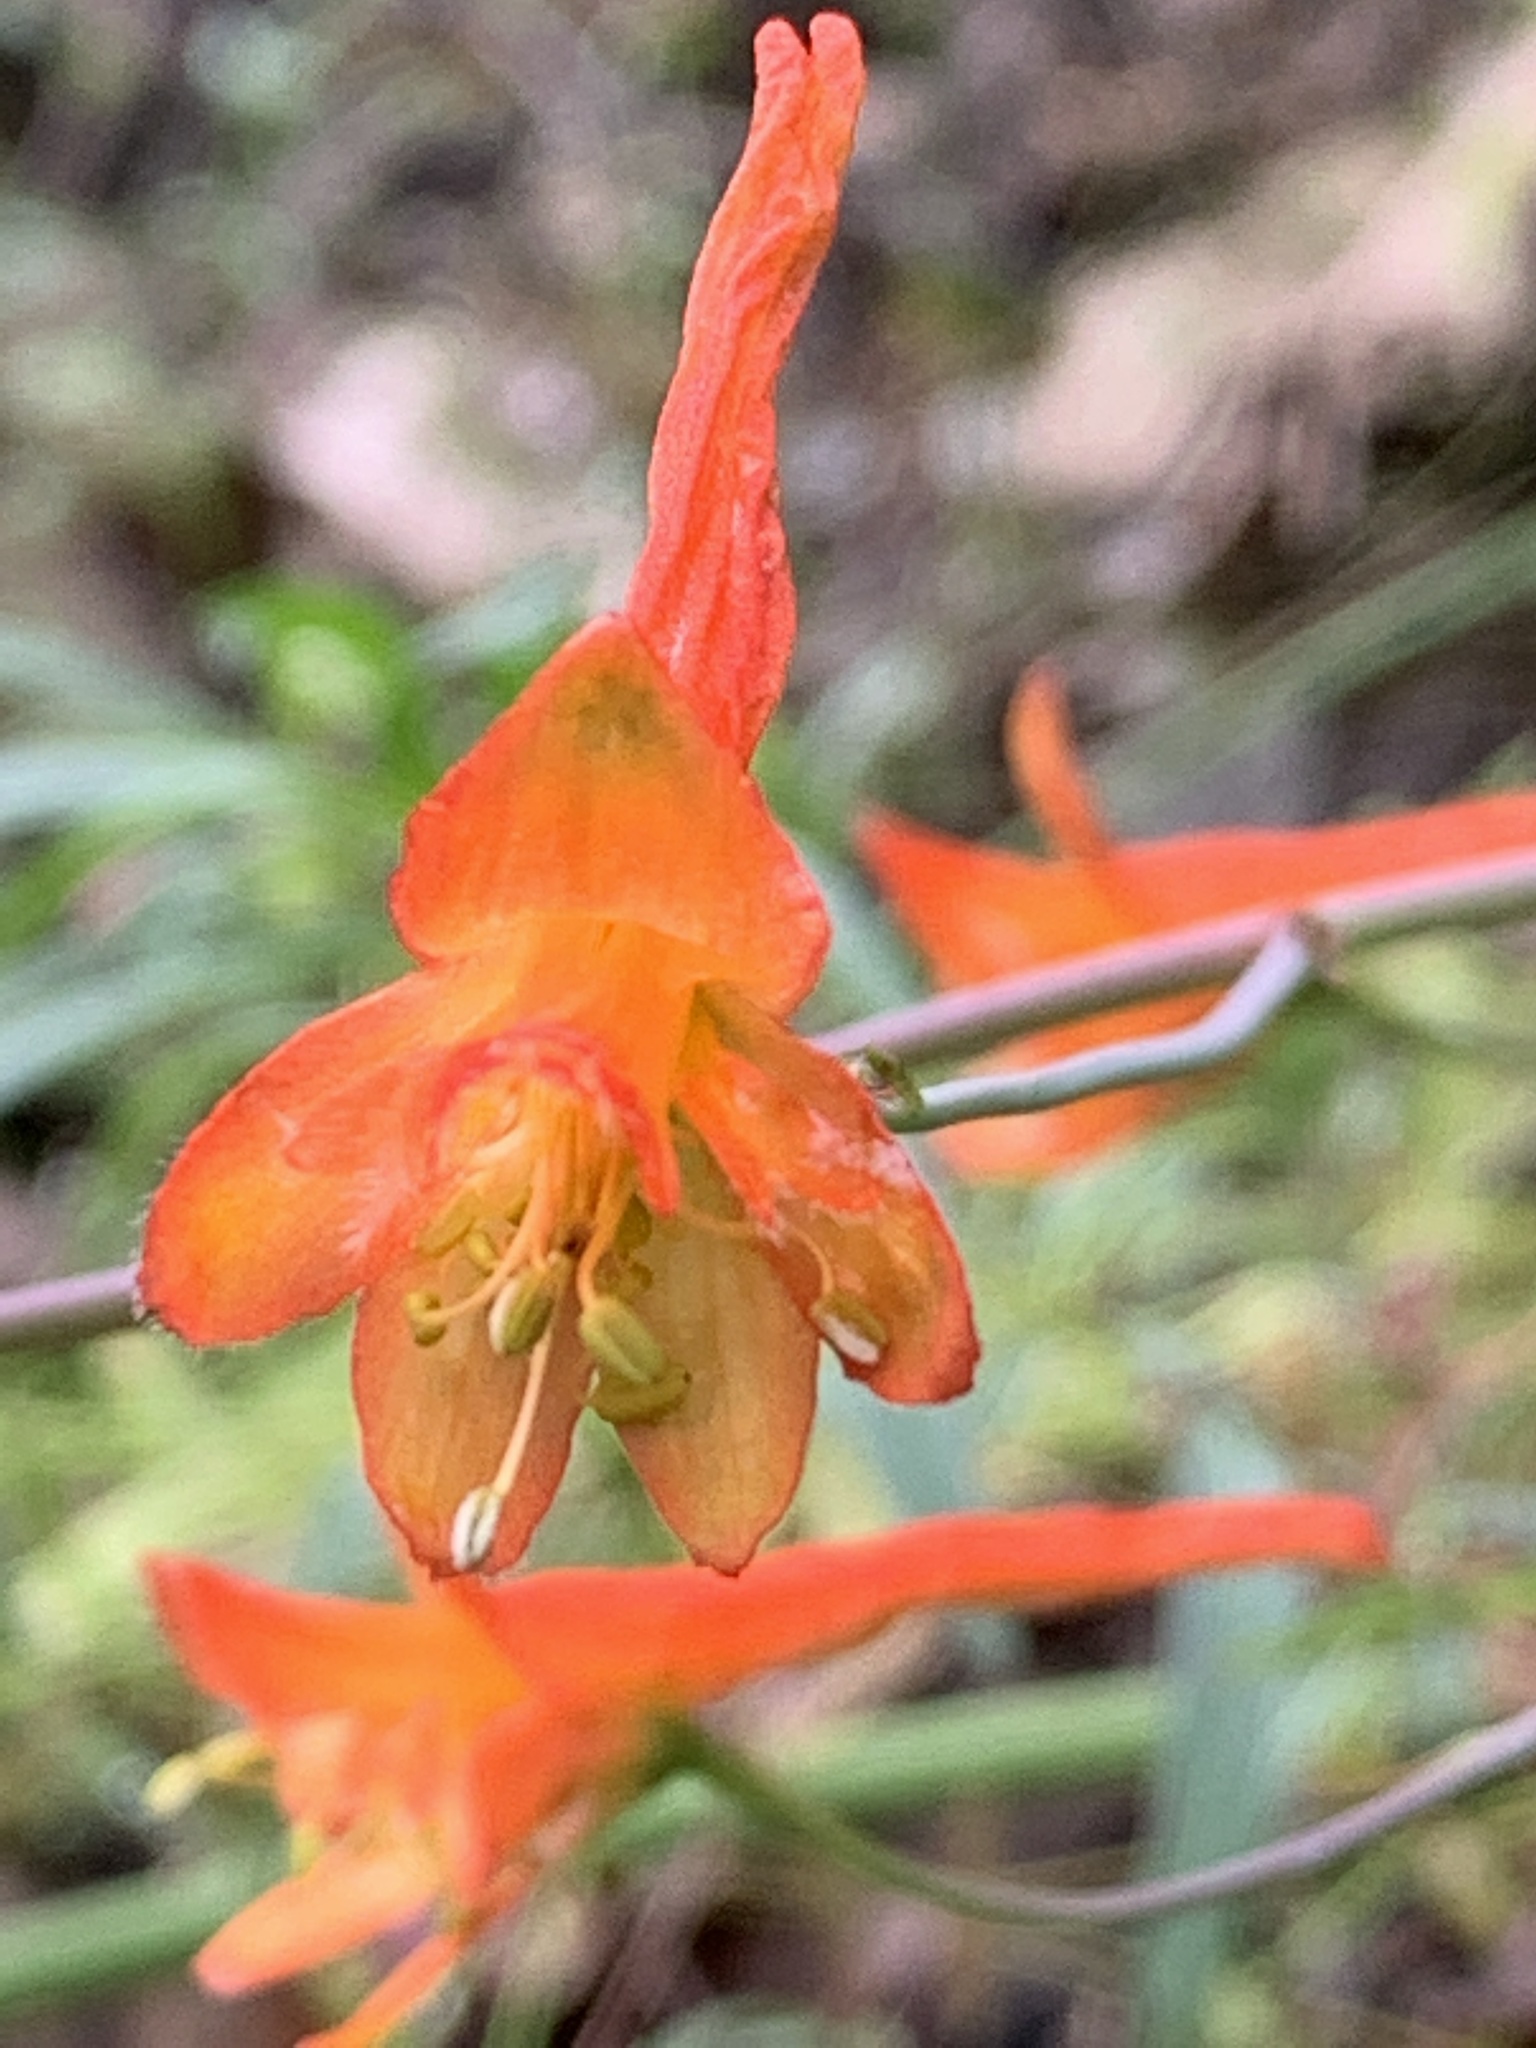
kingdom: Plantae
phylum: Tracheophyta
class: Magnoliopsida
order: Ranunculales
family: Ranunculaceae
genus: Delphinium
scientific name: Delphinium nudicaule
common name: Red larkspur
